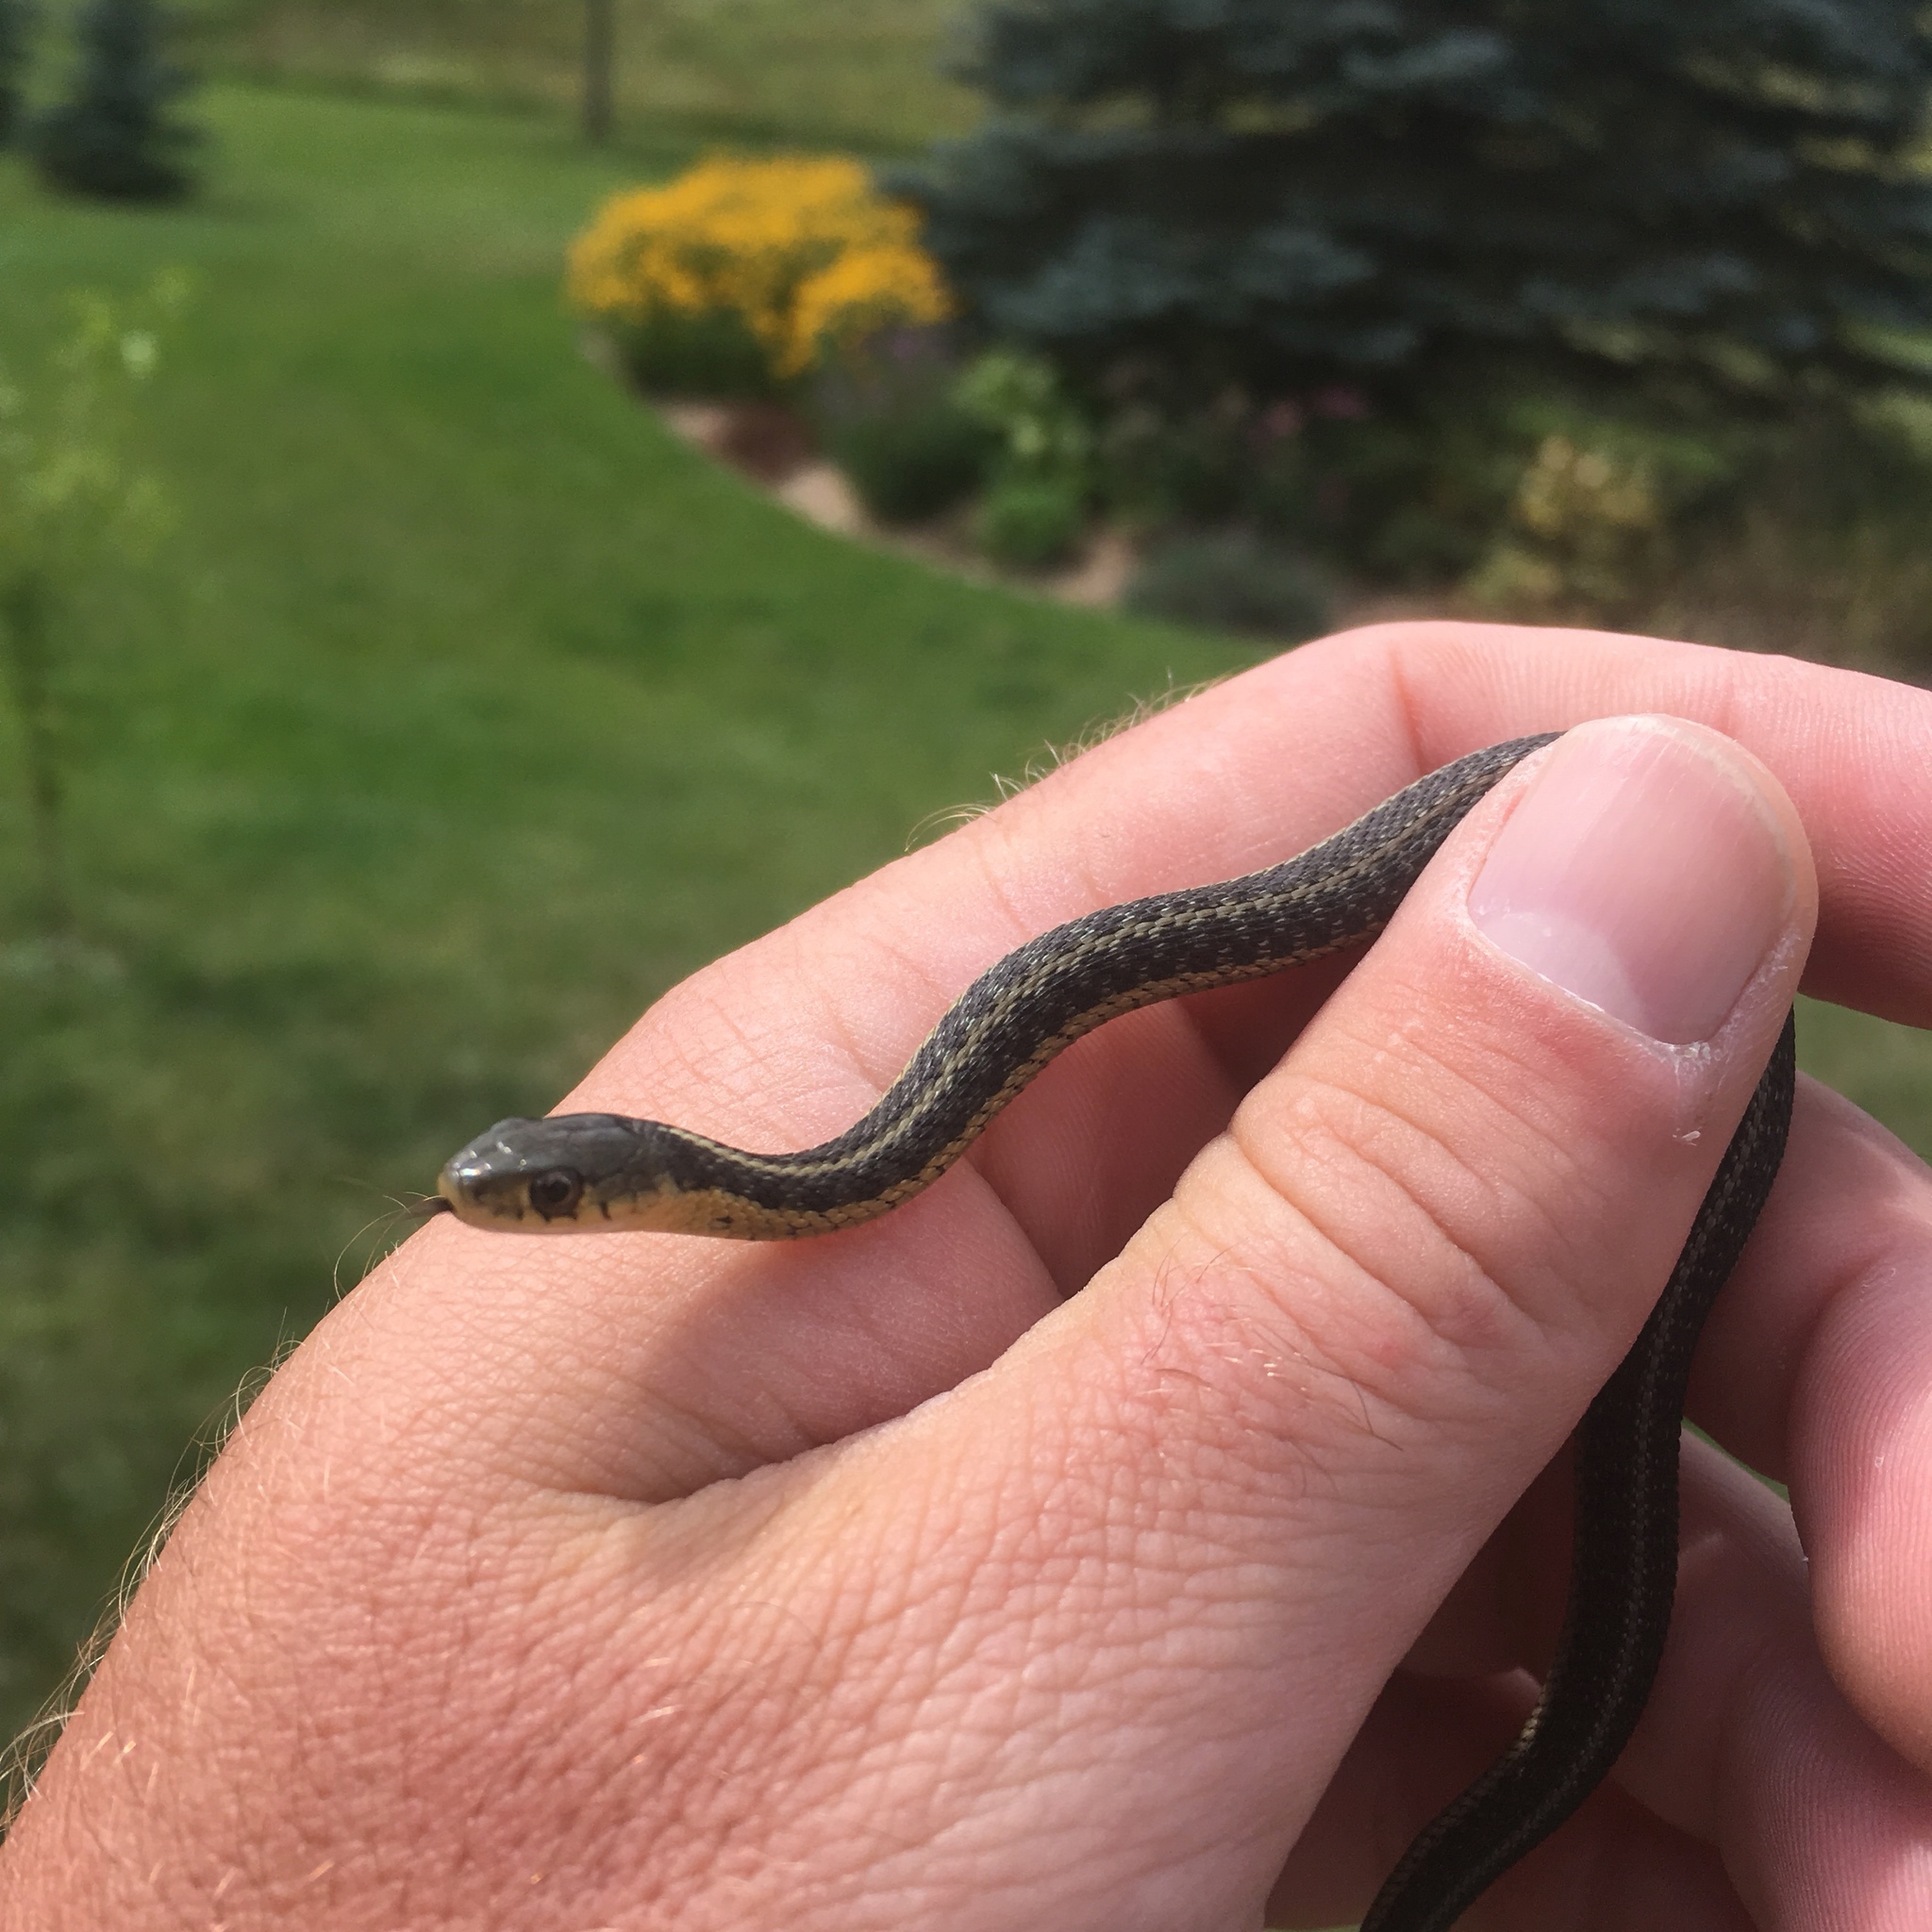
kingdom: Animalia
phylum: Chordata
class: Squamata
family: Colubridae
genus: Thamnophis
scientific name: Thamnophis sirtalis
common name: Common garter snake
